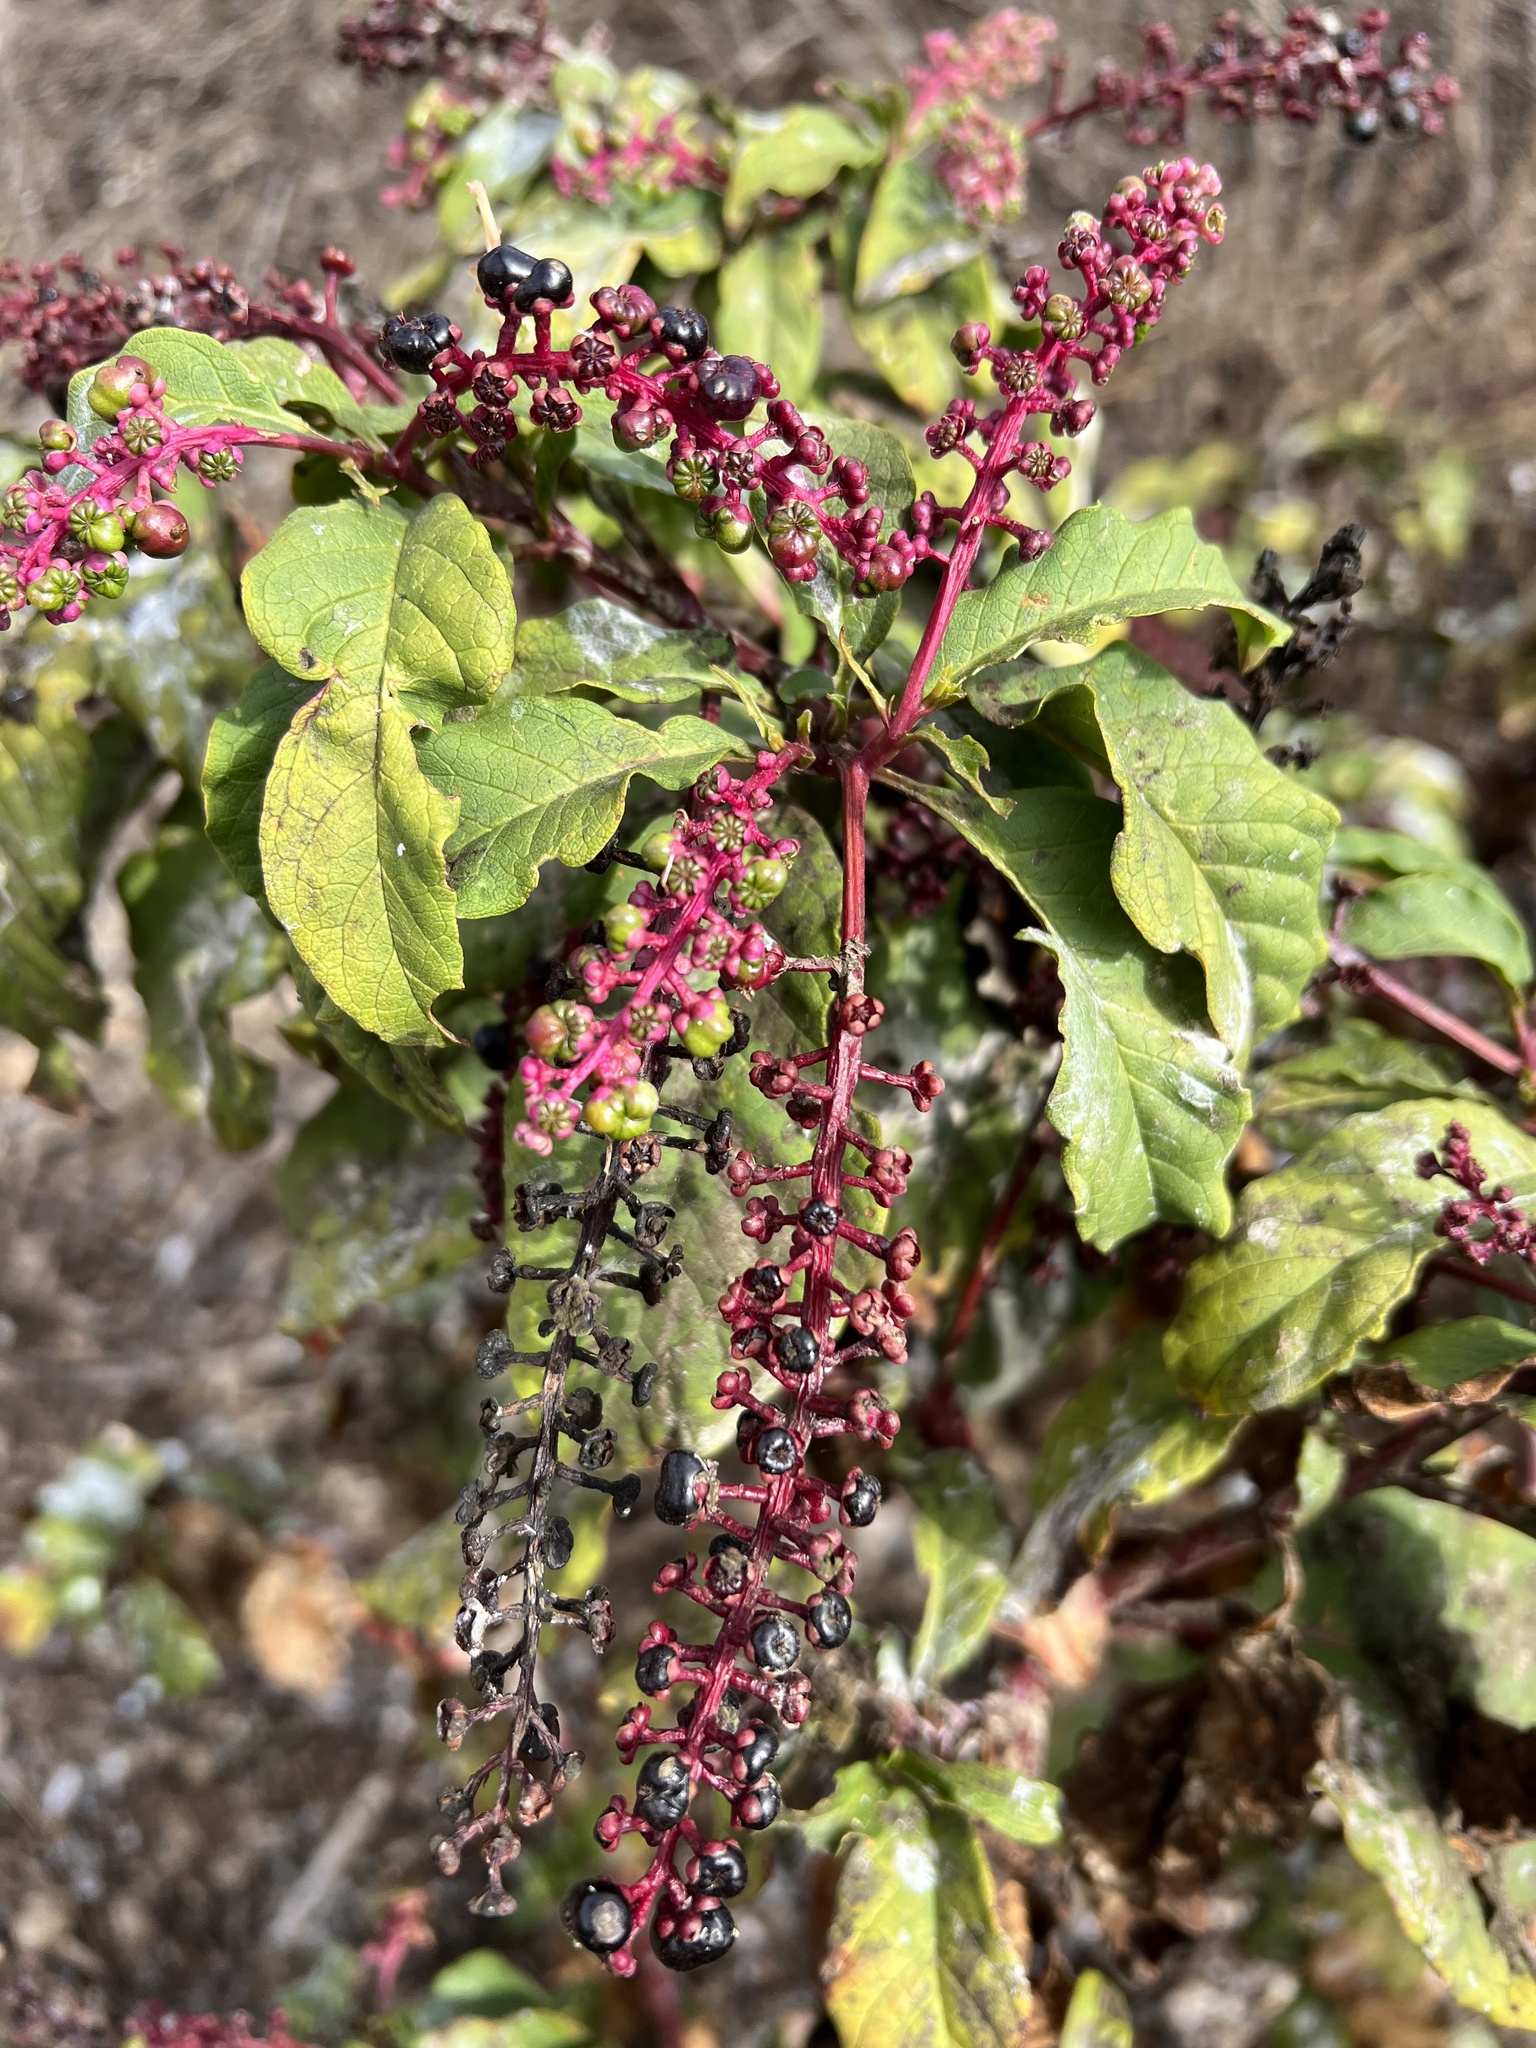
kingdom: Plantae
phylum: Tracheophyta
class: Magnoliopsida
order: Caryophyllales
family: Phytolaccaceae
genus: Phytolacca
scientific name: Phytolacca americana
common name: American pokeweed
